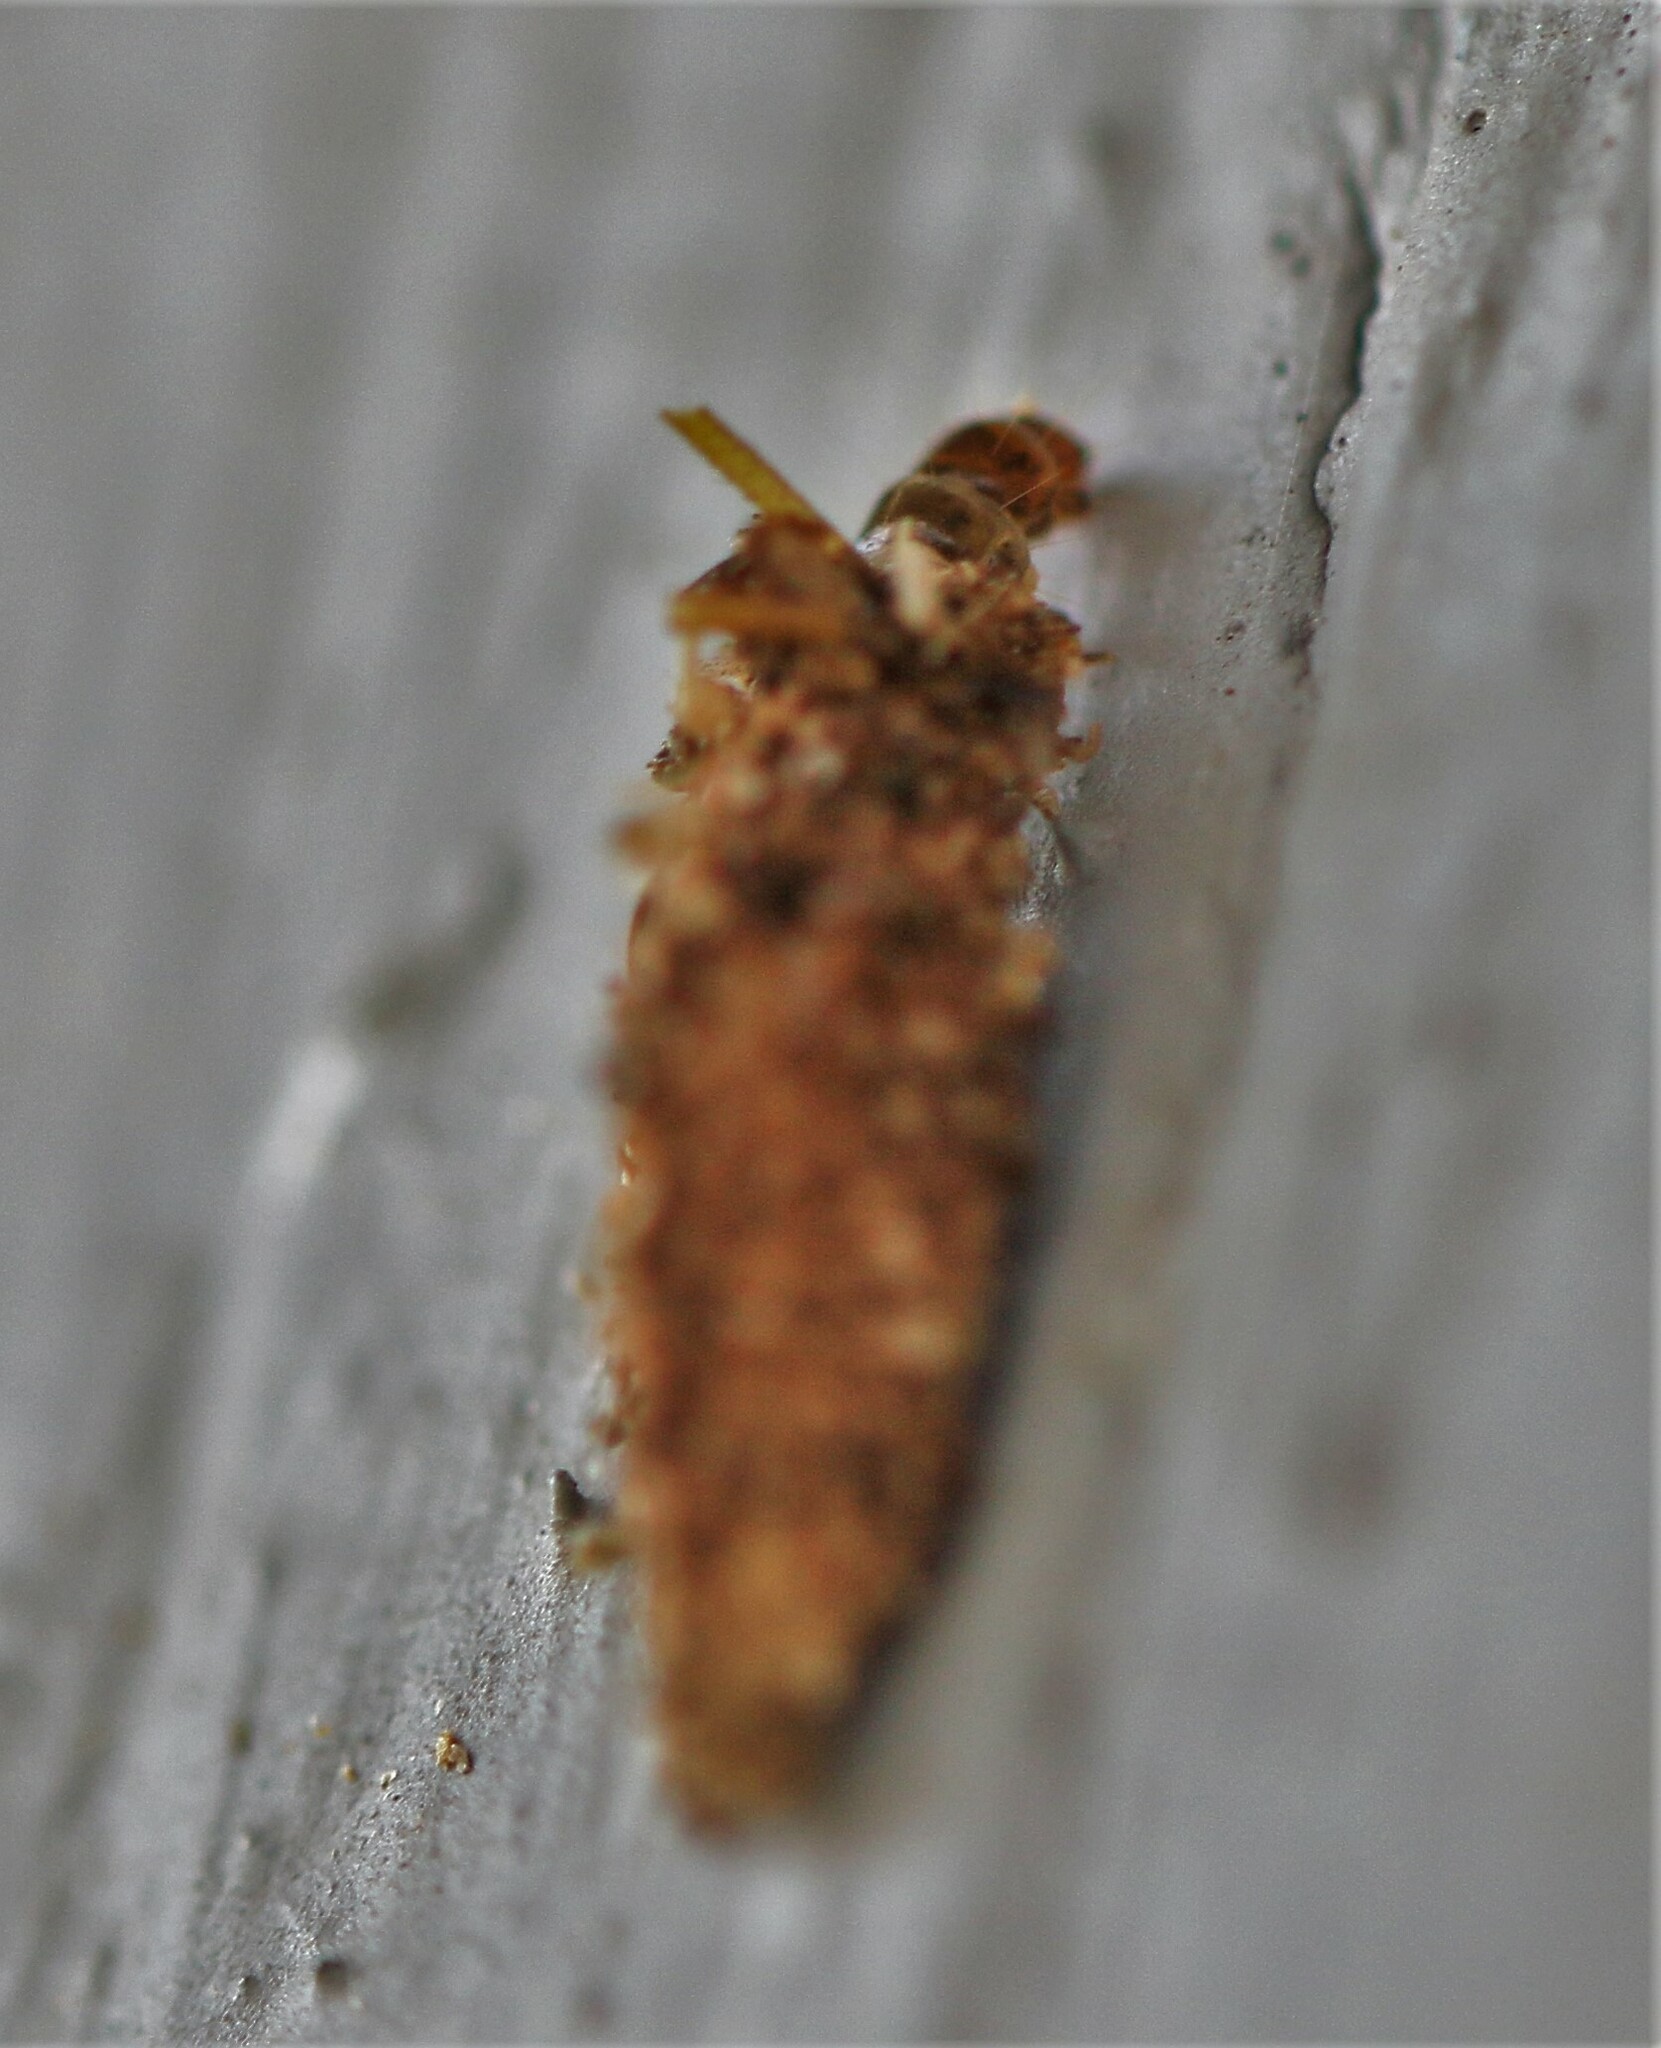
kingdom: Animalia
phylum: Arthropoda
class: Insecta
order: Lepidoptera
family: Psychidae
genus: Dahlica
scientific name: Dahlica triquetrella
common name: Narrow lichen case-bearer
